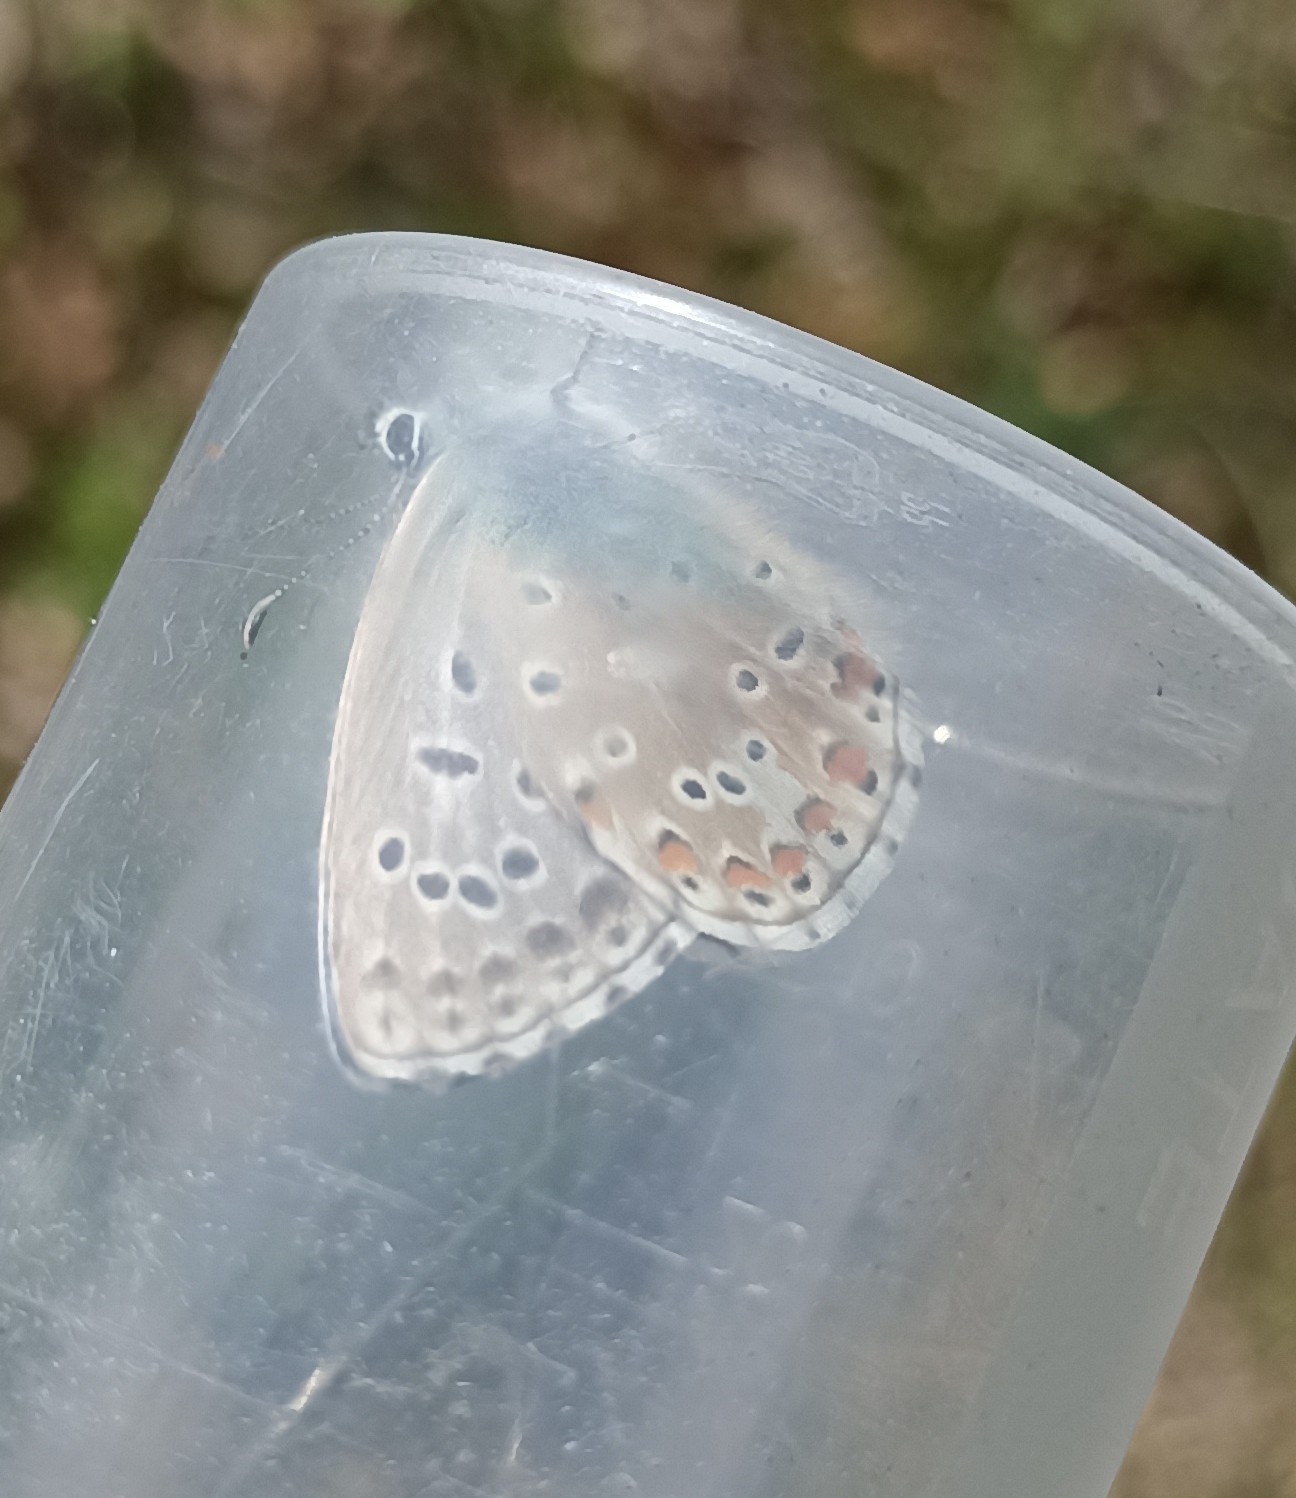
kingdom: Animalia
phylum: Arthropoda
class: Insecta
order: Lepidoptera
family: Lycaenidae
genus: Lysandra
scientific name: Lysandra bellargus
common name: Adonis blue
